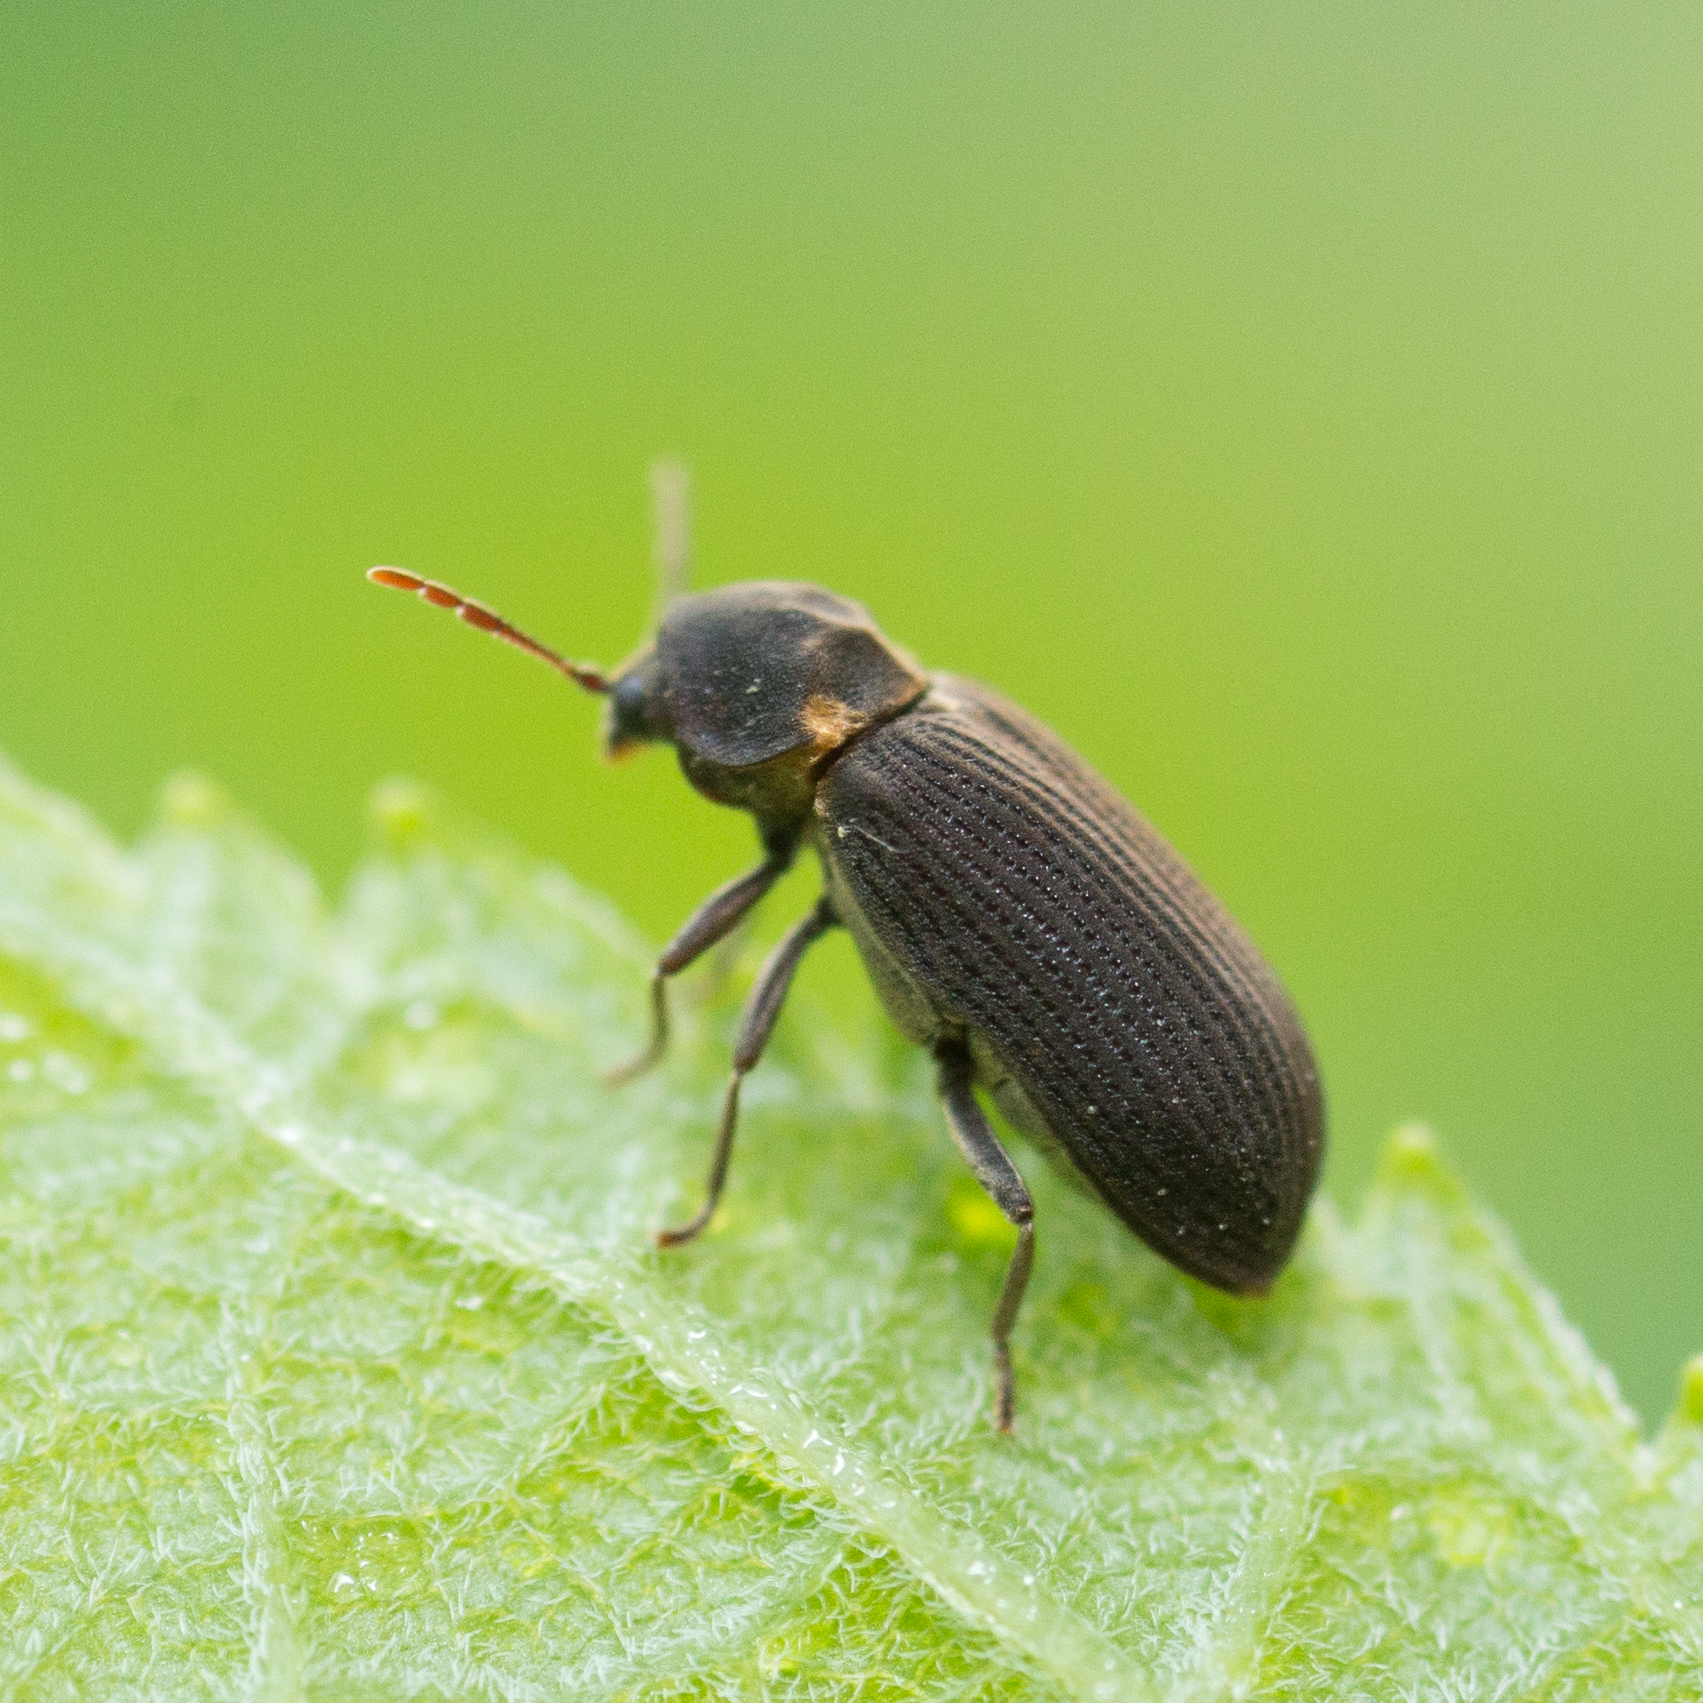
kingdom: Animalia
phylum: Arthropoda
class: Insecta
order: Coleoptera
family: Anobiidae
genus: Hadrobregmus
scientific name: Hadrobregmus pertinax
